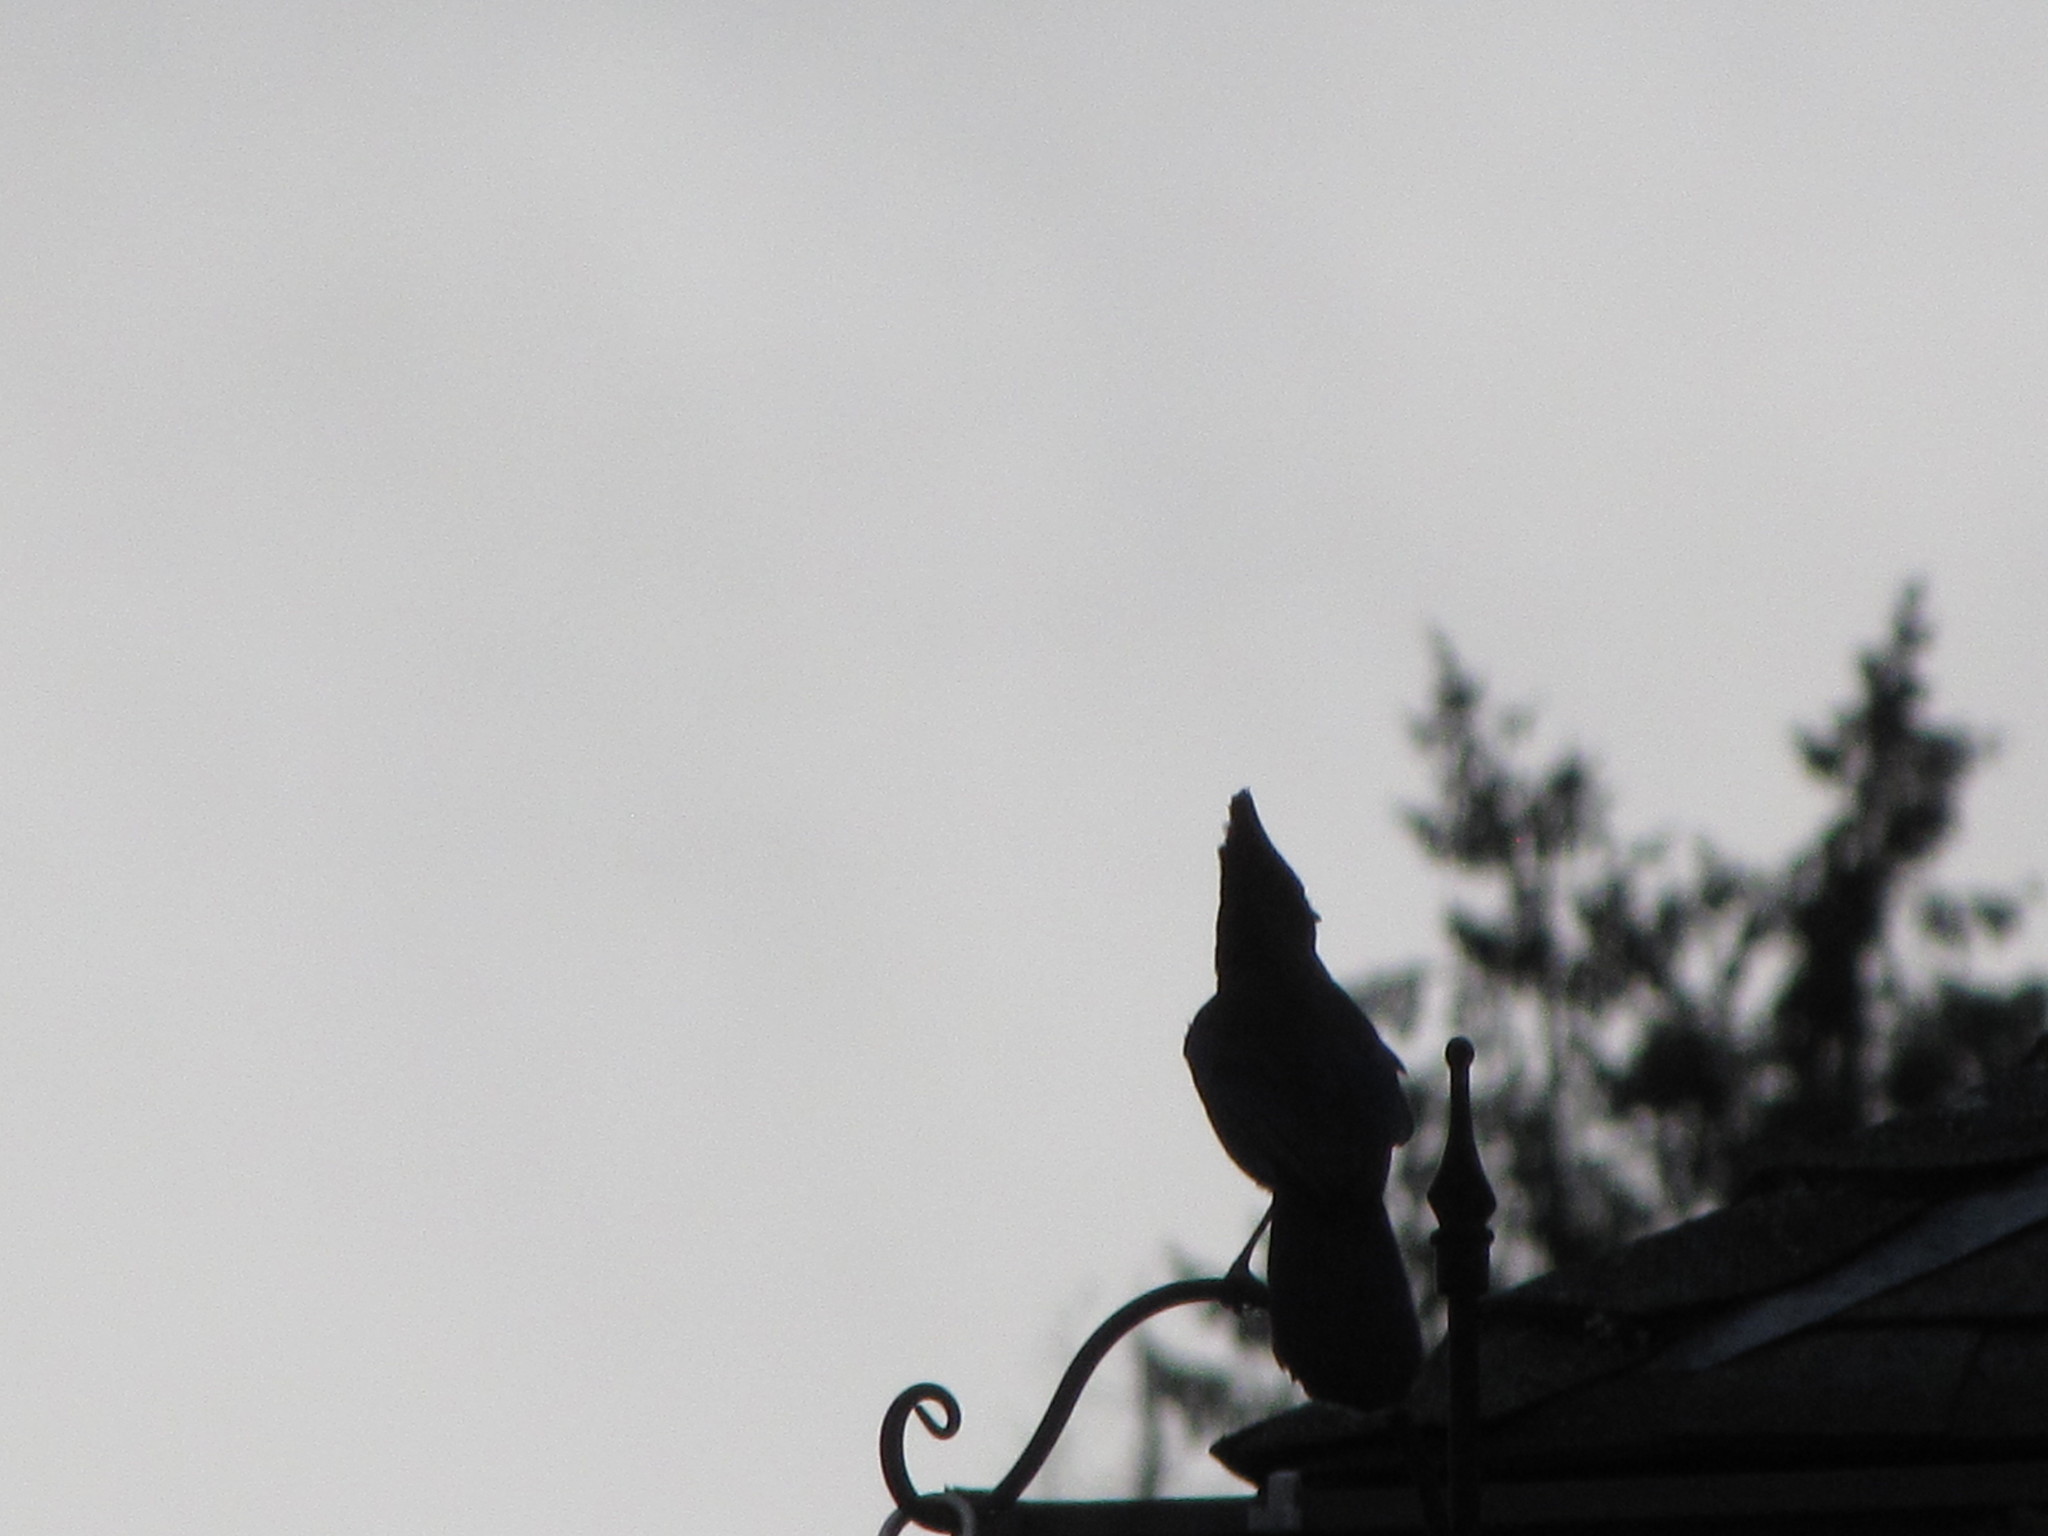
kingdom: Animalia
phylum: Chordata
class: Aves
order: Passeriformes
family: Corvidae
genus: Cyanocitta
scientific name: Cyanocitta stelleri
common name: Steller's jay
